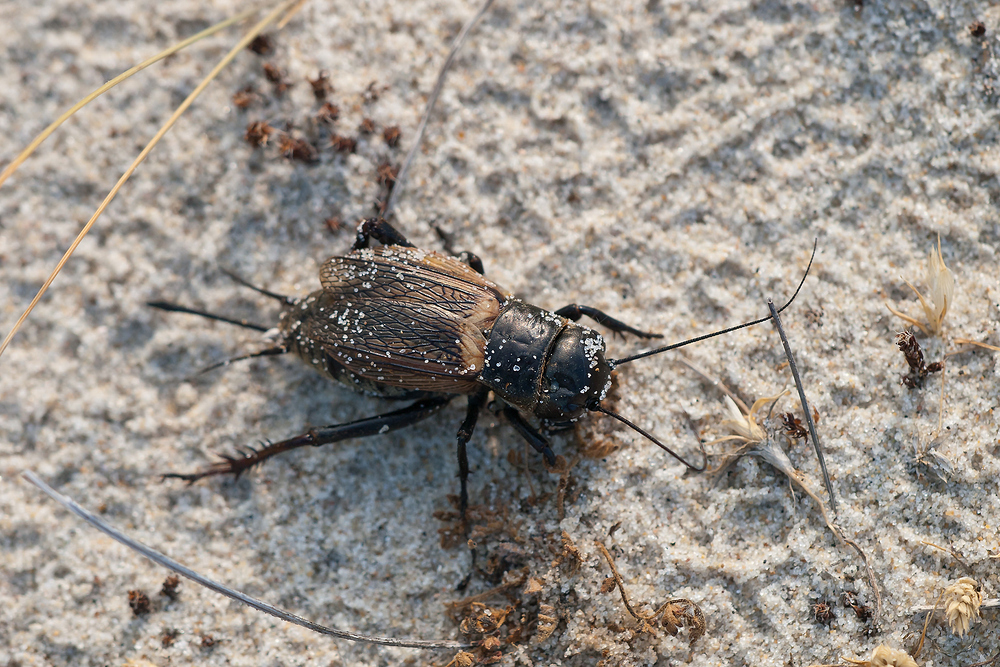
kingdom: Animalia
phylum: Arthropoda
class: Insecta
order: Orthoptera
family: Gryllidae
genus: Gryllus
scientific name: Gryllus campestris
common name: Field cricket
